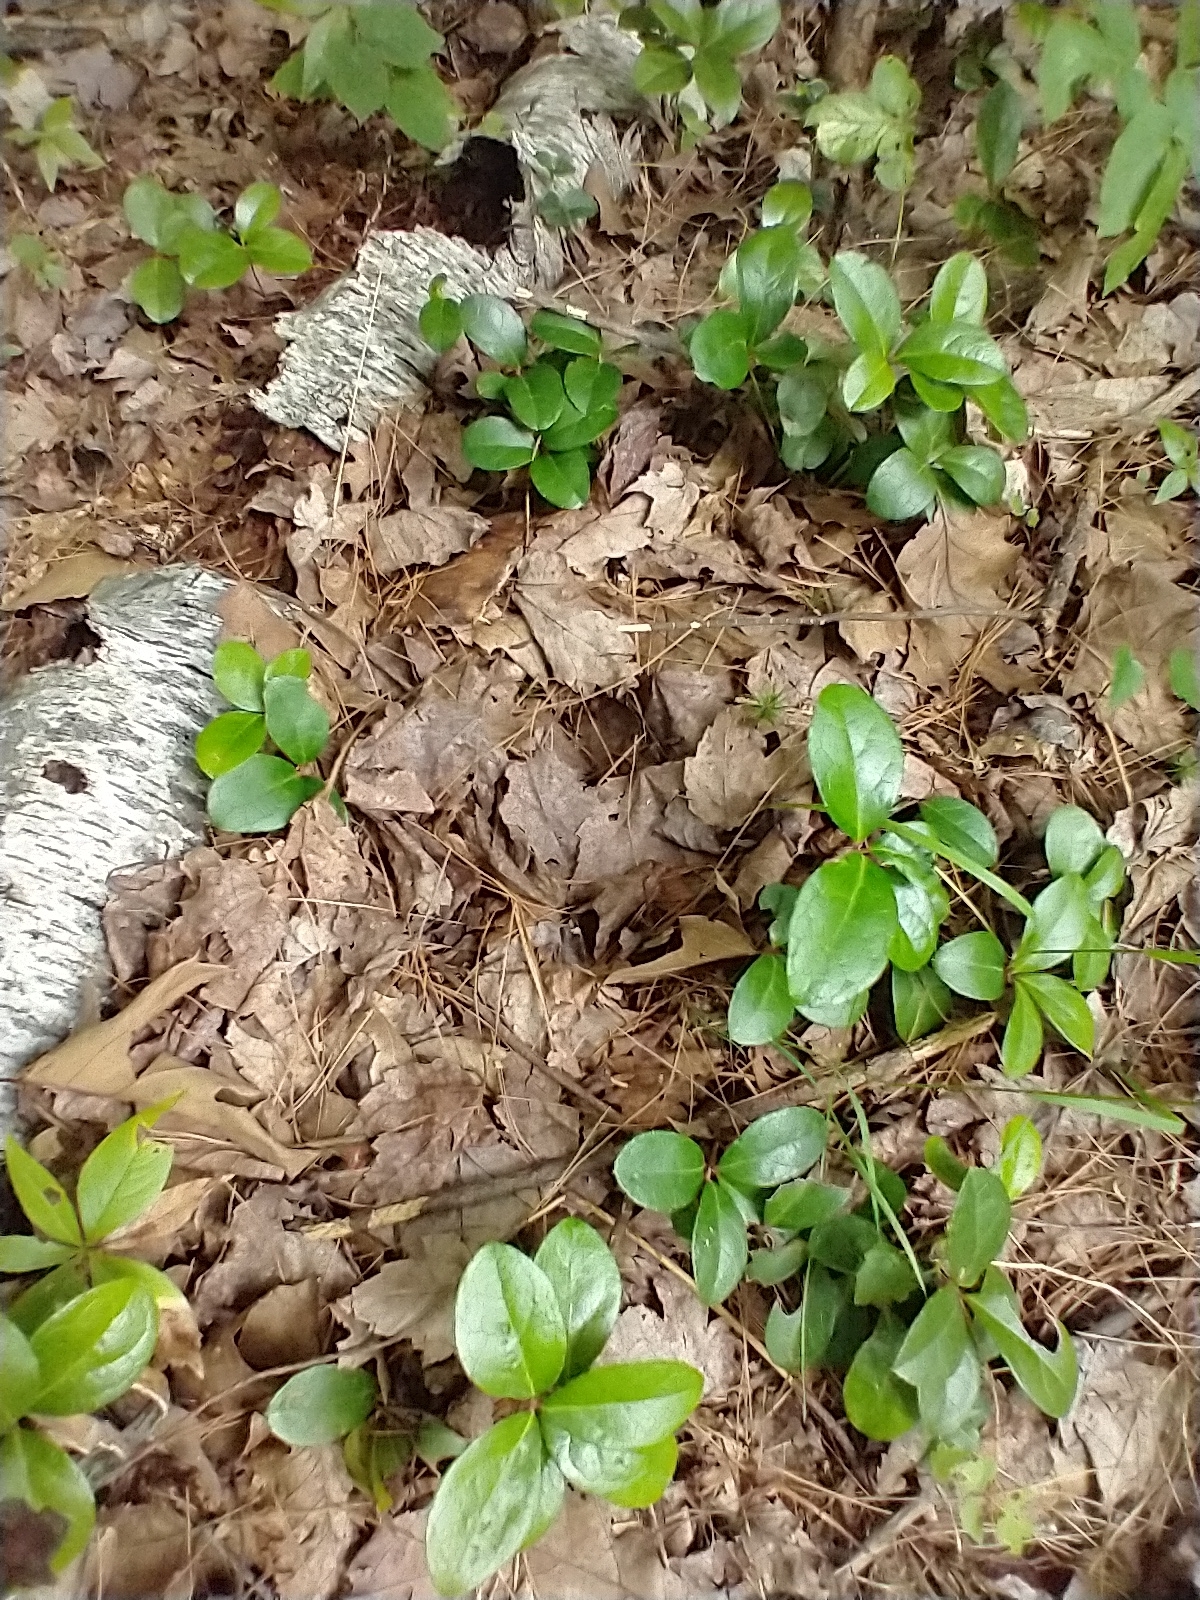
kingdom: Plantae
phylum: Tracheophyta
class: Magnoliopsida
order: Ericales
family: Ericaceae
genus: Gaultheria
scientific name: Gaultheria procumbens
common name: Checkerberry
